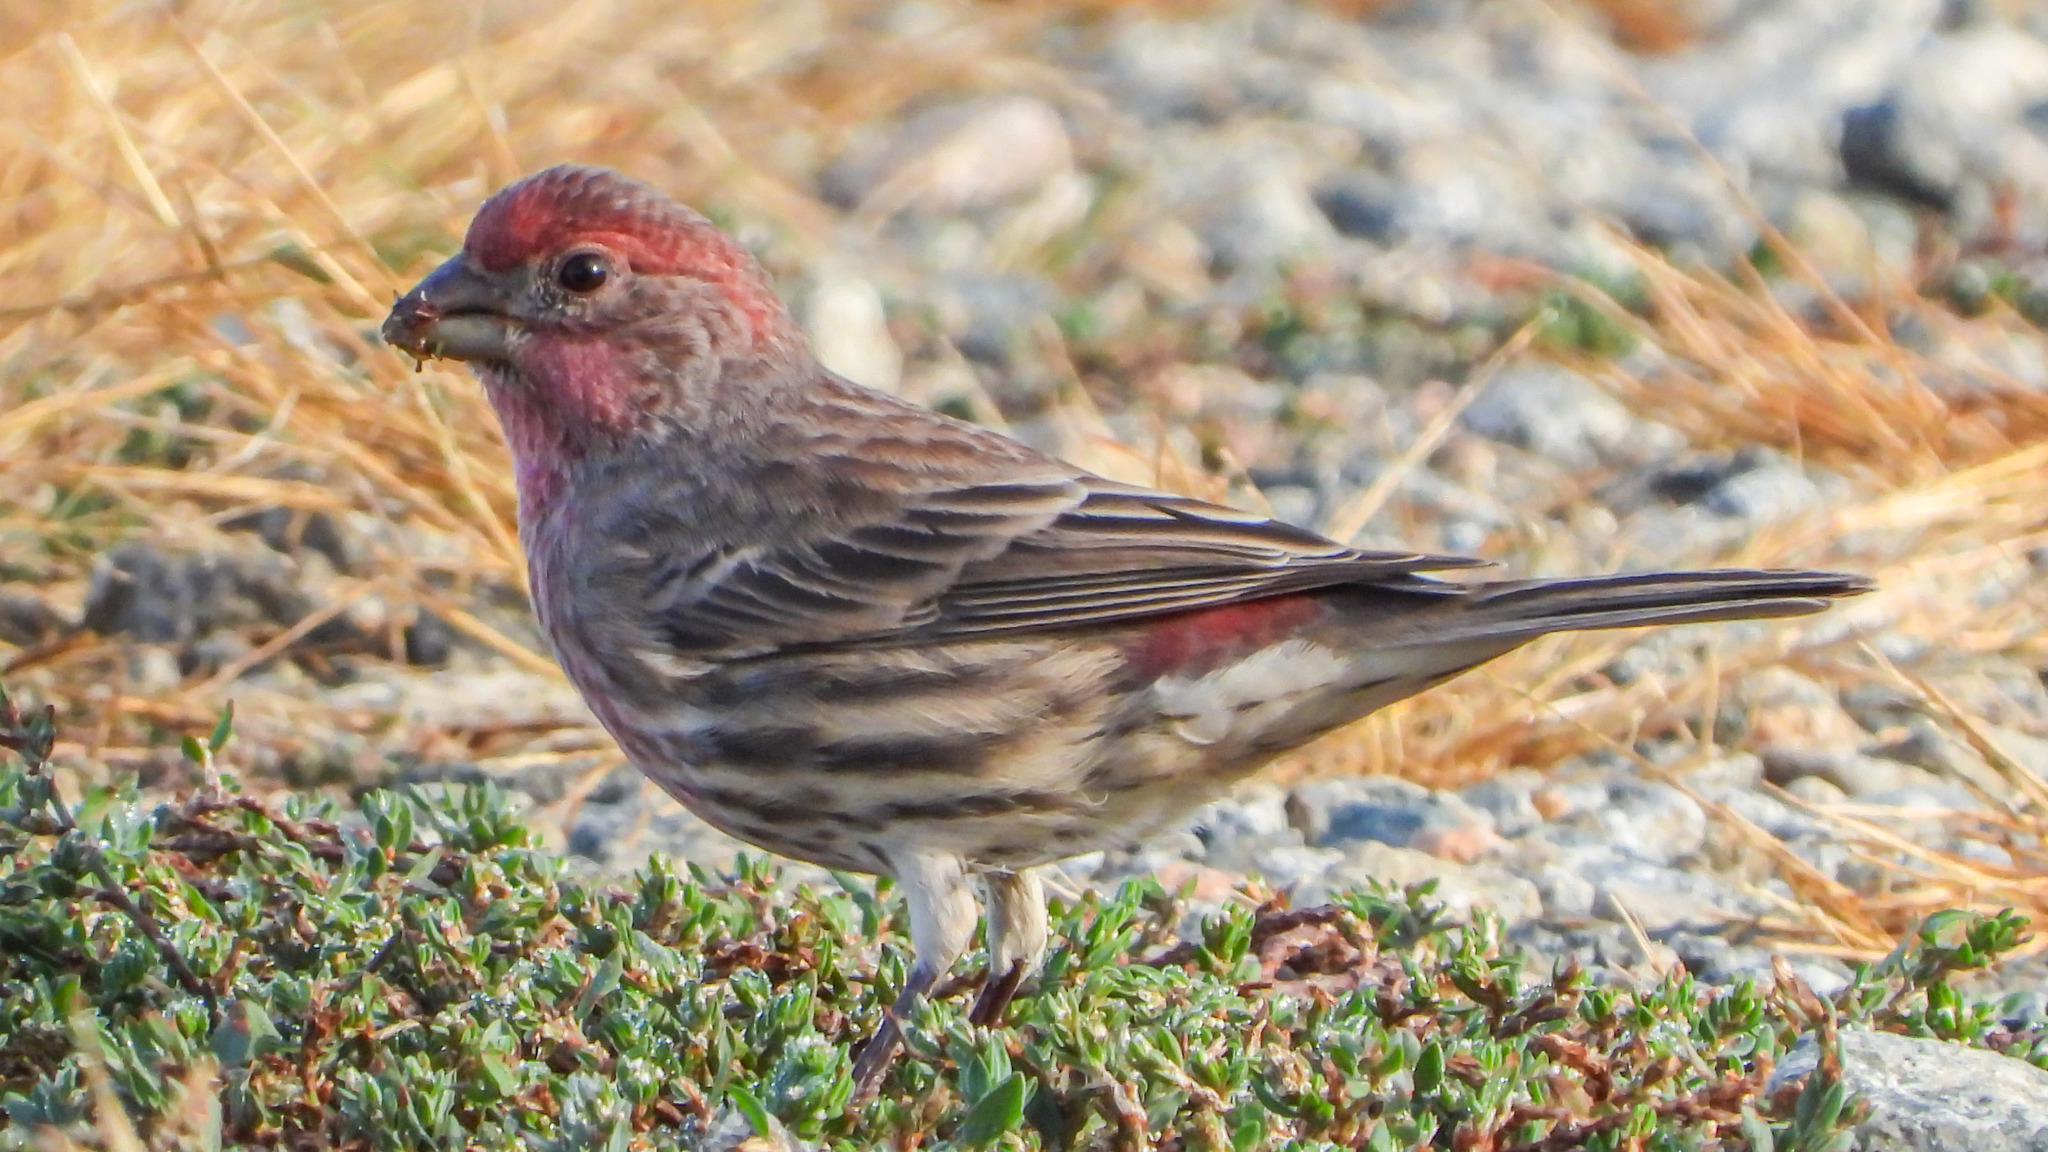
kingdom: Animalia
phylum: Chordata
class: Aves
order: Passeriformes
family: Fringillidae
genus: Haemorhous
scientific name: Haemorhous mexicanus
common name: House finch
